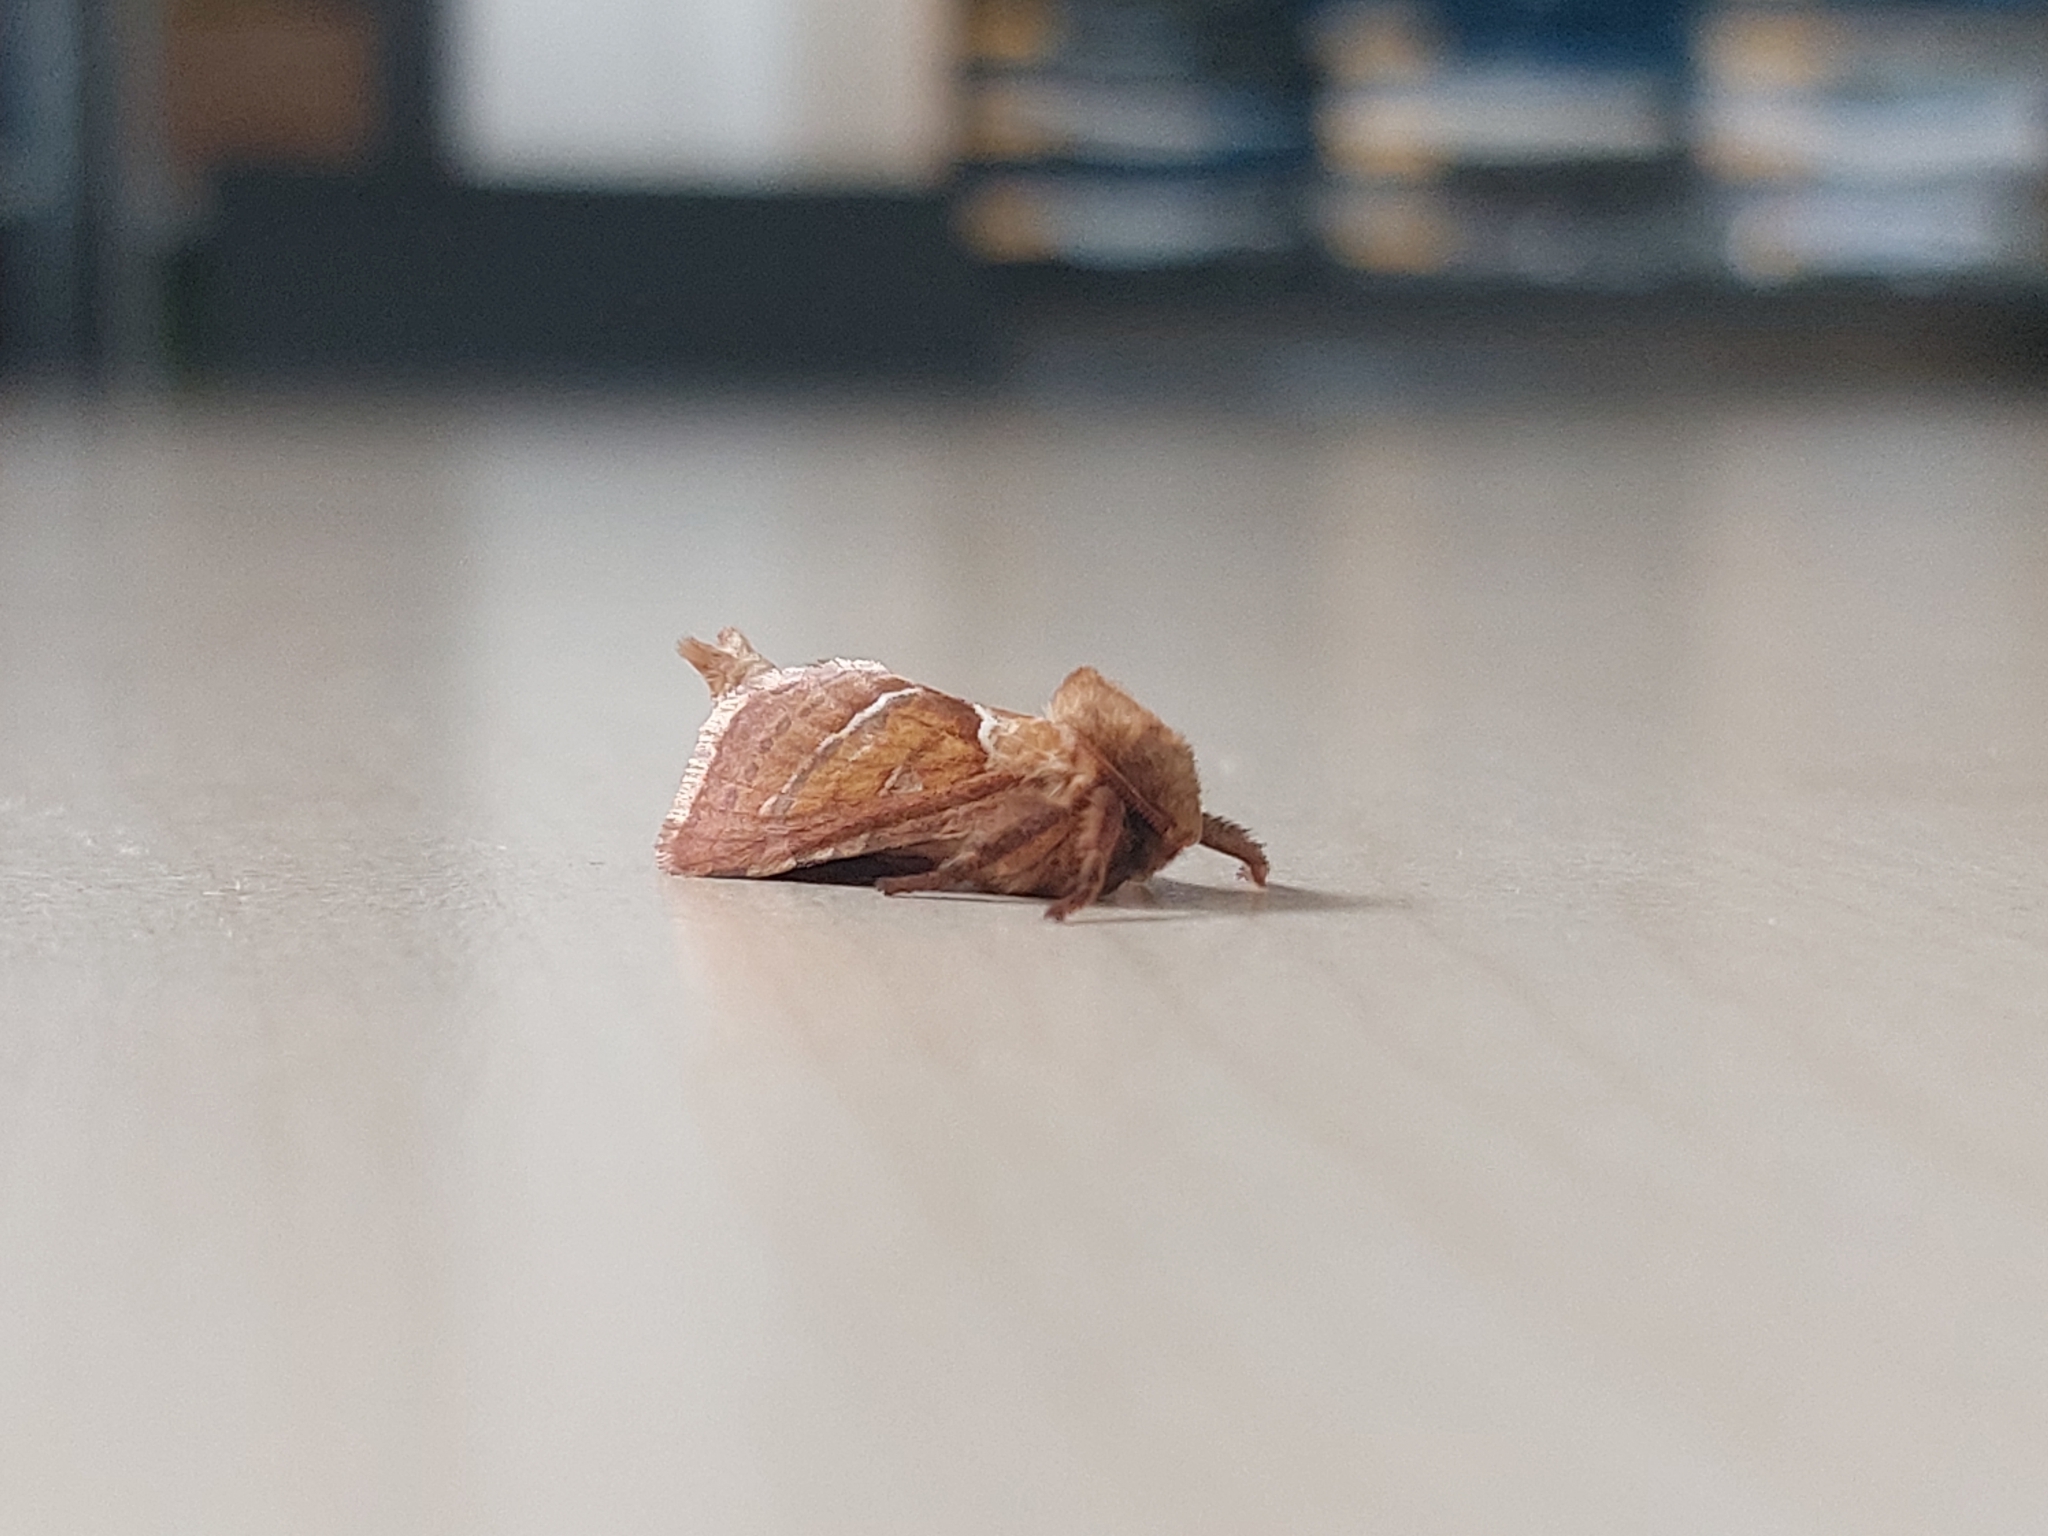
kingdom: Animalia
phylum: Arthropoda
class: Insecta
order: Lepidoptera
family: Hepialidae
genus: Triodia
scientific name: Triodia sylvina
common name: Orange swift
